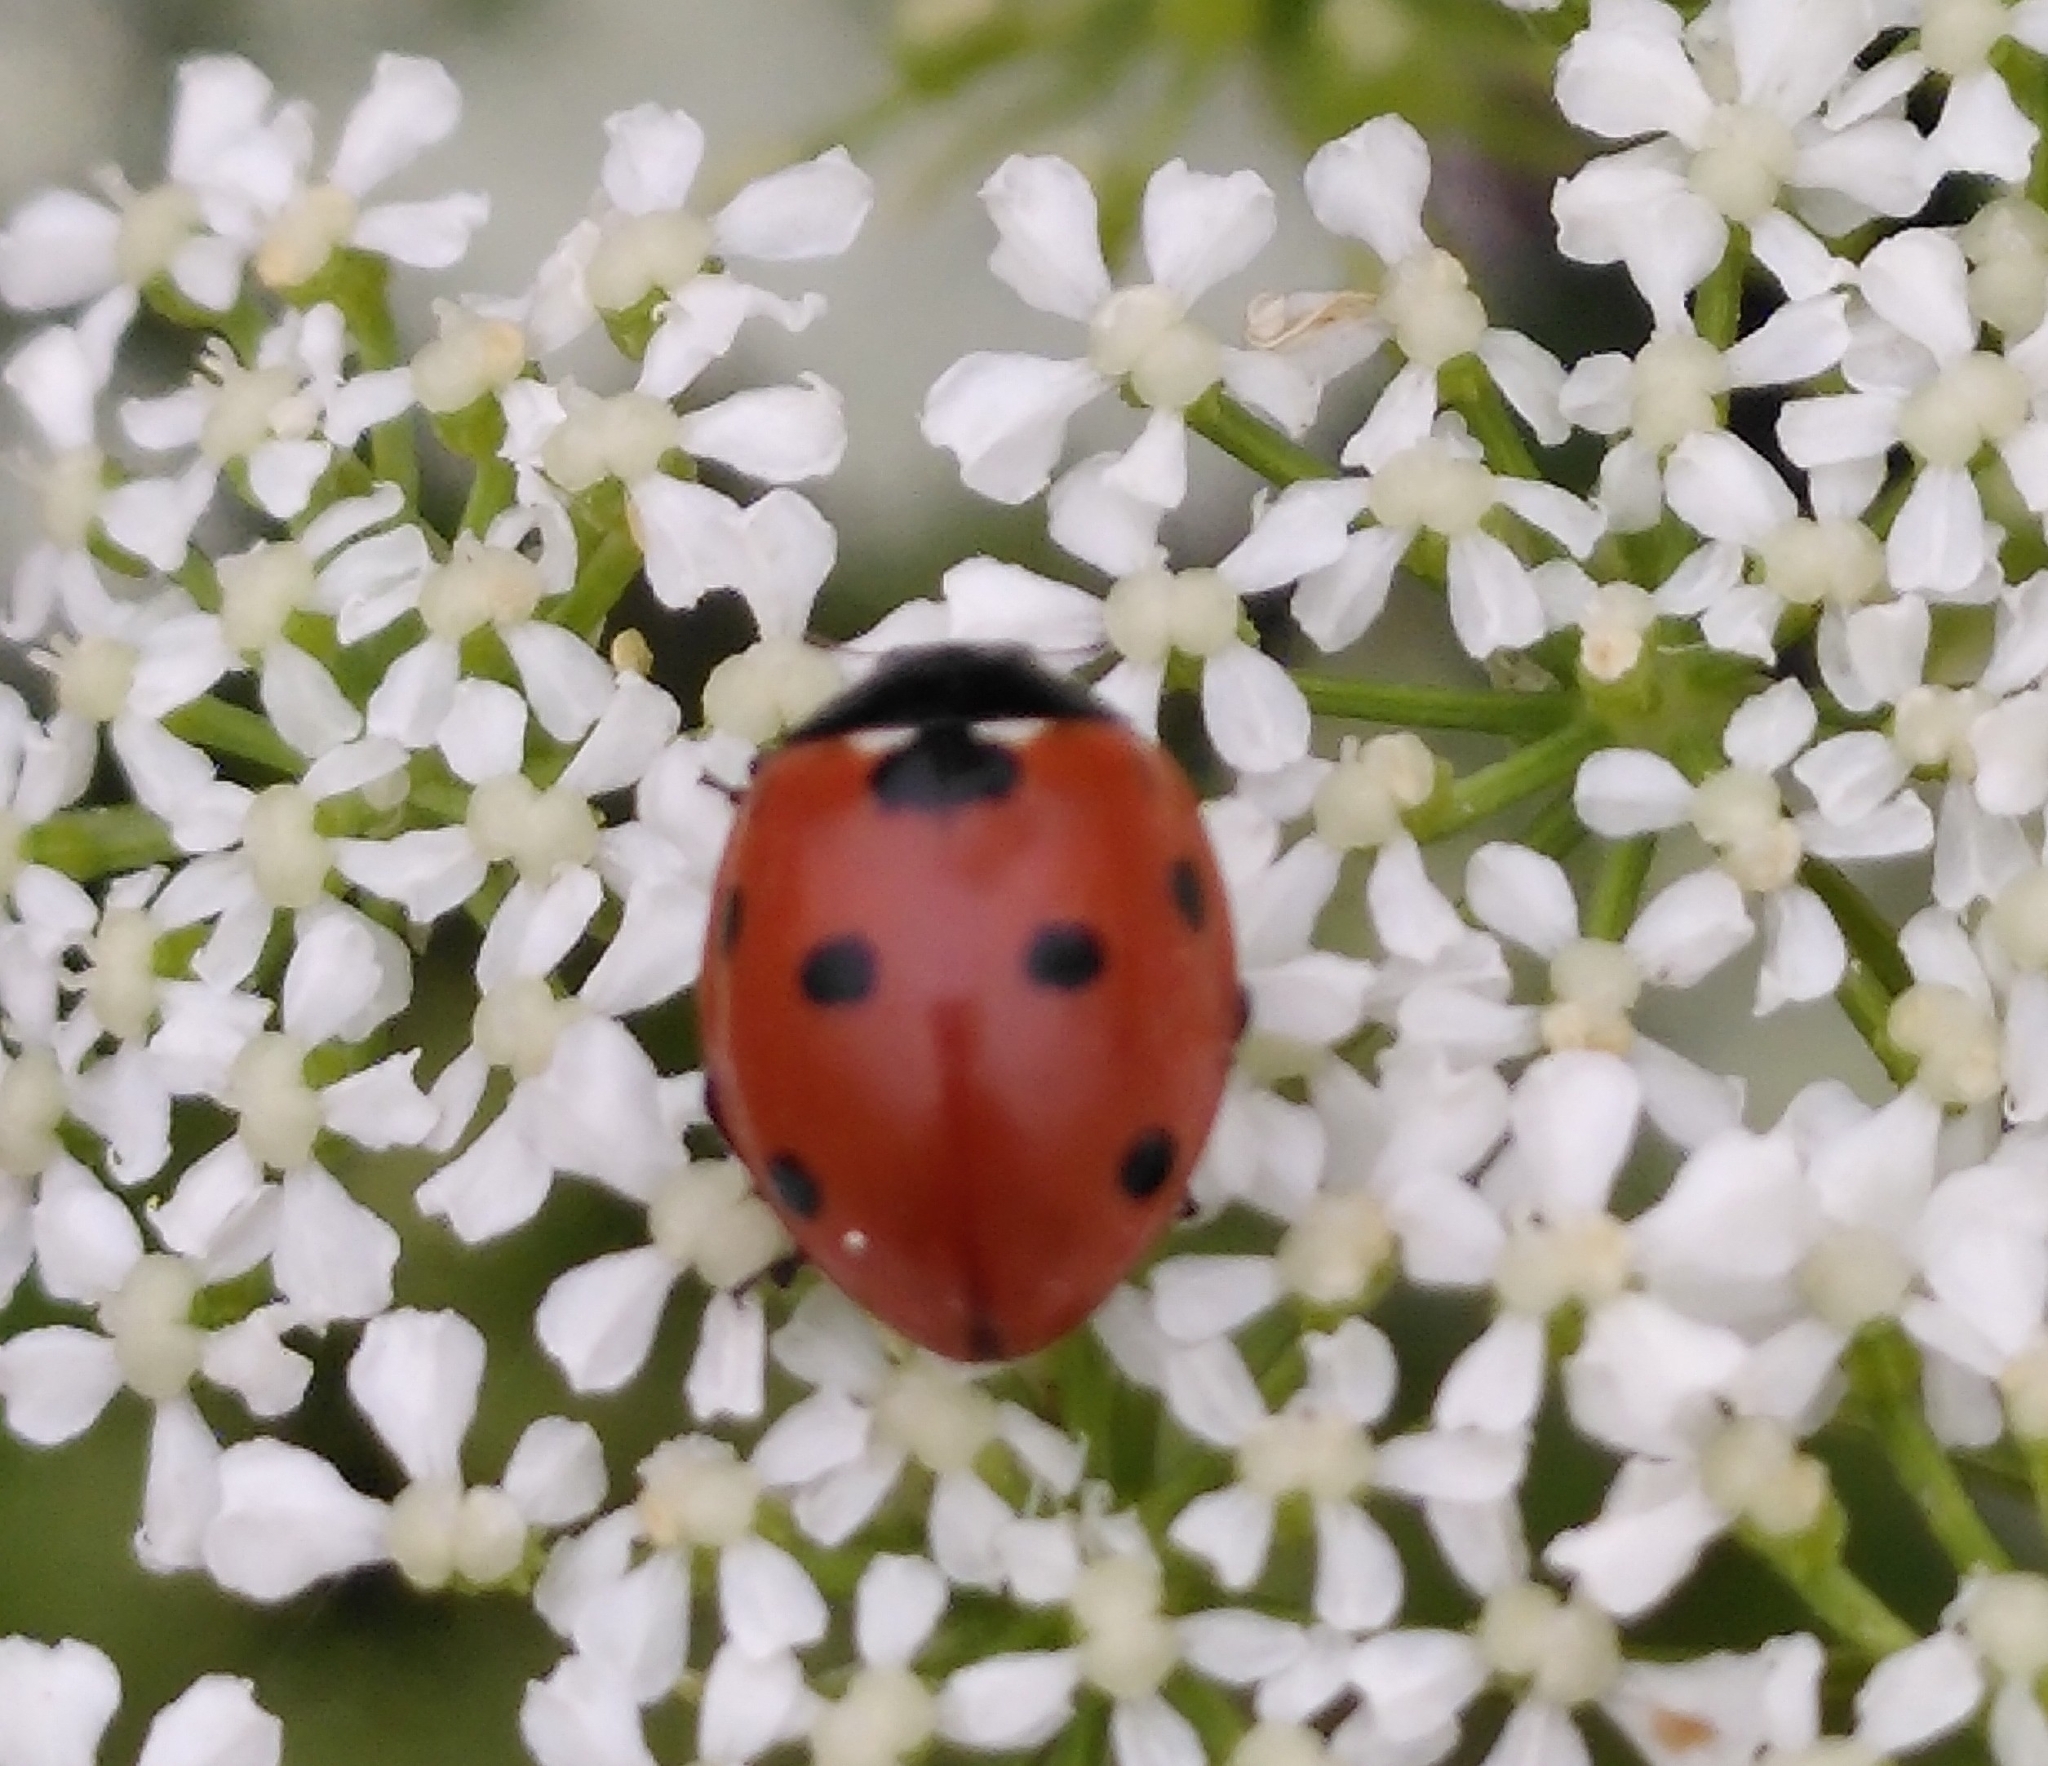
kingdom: Animalia
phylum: Arthropoda
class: Insecta
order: Coleoptera
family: Coccinellidae
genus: Coccinella
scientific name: Coccinella septempunctata
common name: Sevenspotted lady beetle
